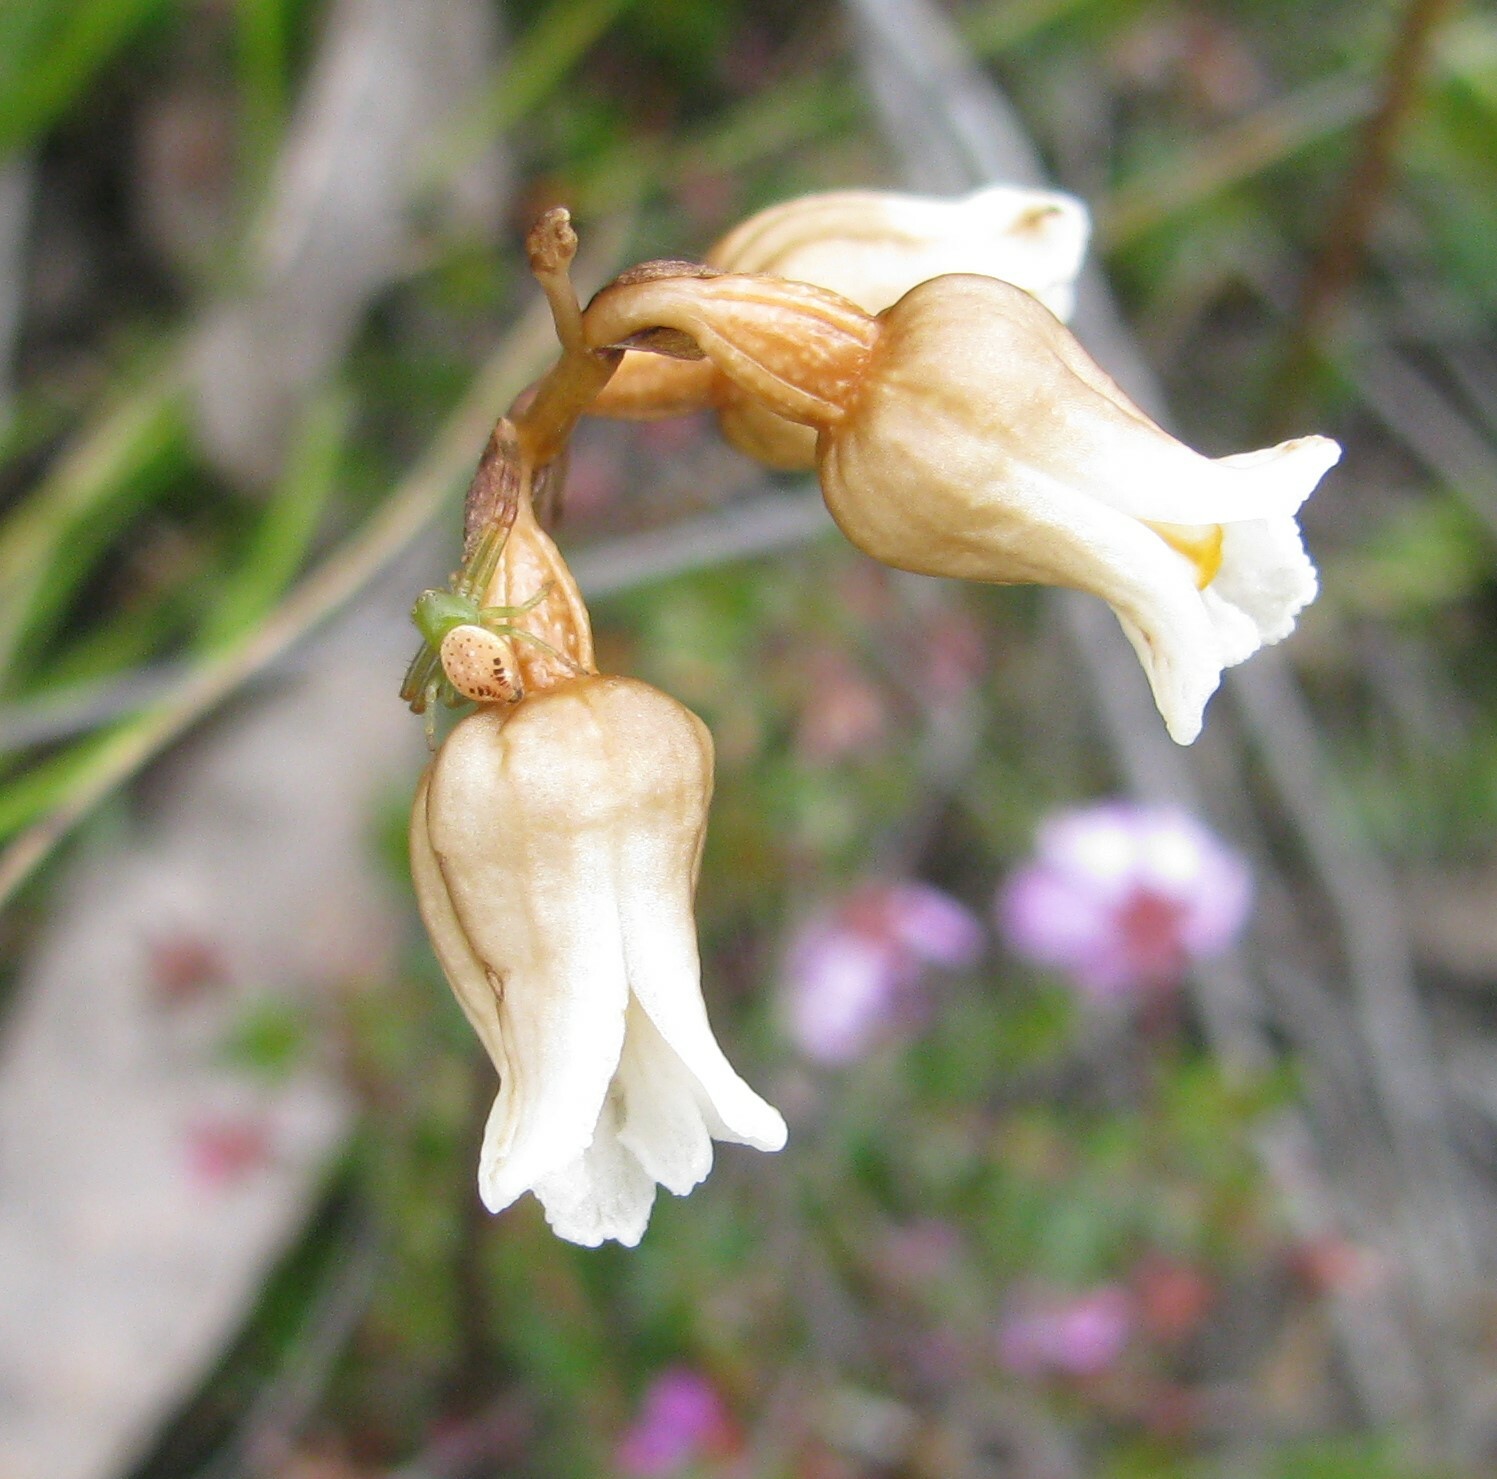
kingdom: Plantae
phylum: Tracheophyta
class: Liliopsida
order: Asparagales
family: Orchidaceae
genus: Gastrodia
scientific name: Gastrodia sesamoides
